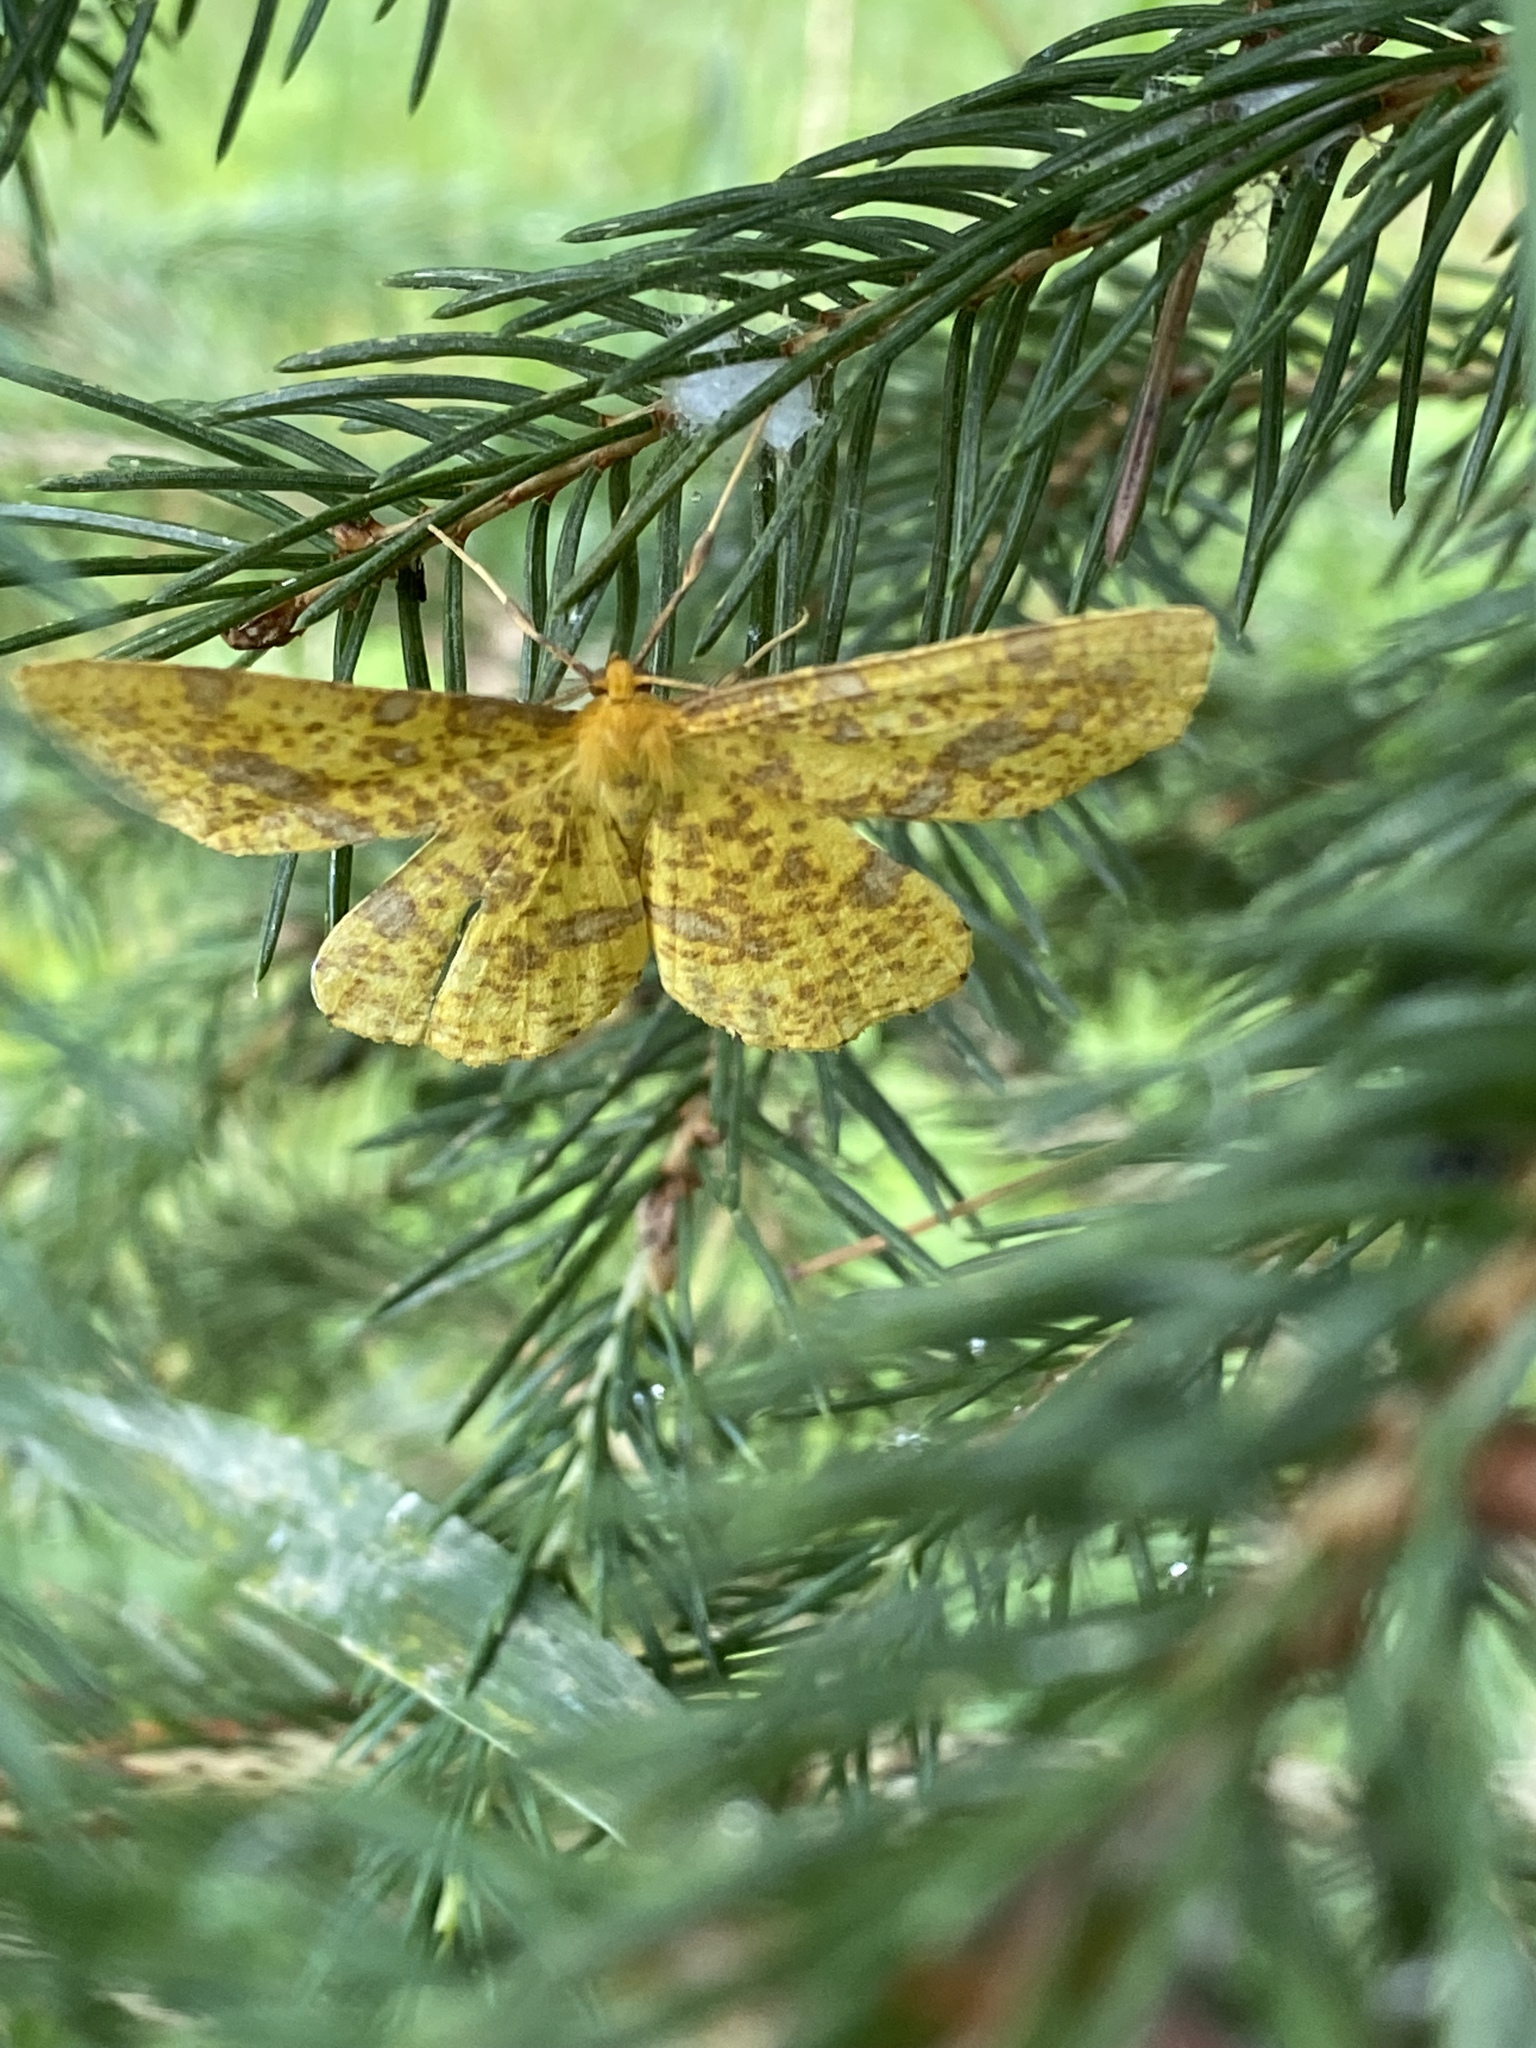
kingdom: Animalia
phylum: Arthropoda
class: Insecta
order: Lepidoptera
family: Geometridae
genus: Xanthotype
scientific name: Xanthotype
